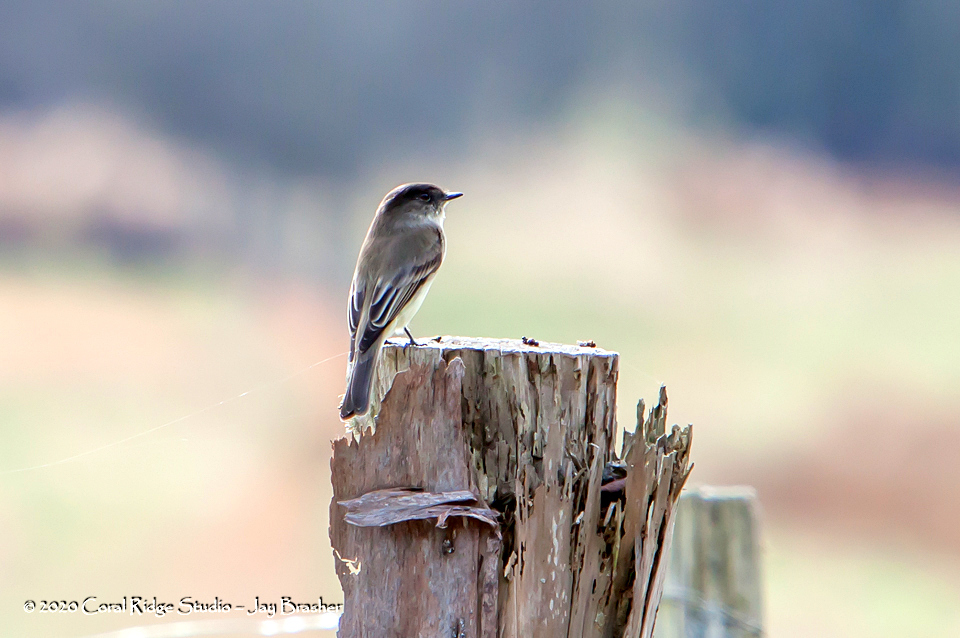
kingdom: Animalia
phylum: Chordata
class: Aves
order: Passeriformes
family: Tyrannidae
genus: Sayornis
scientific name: Sayornis phoebe
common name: Eastern phoebe
